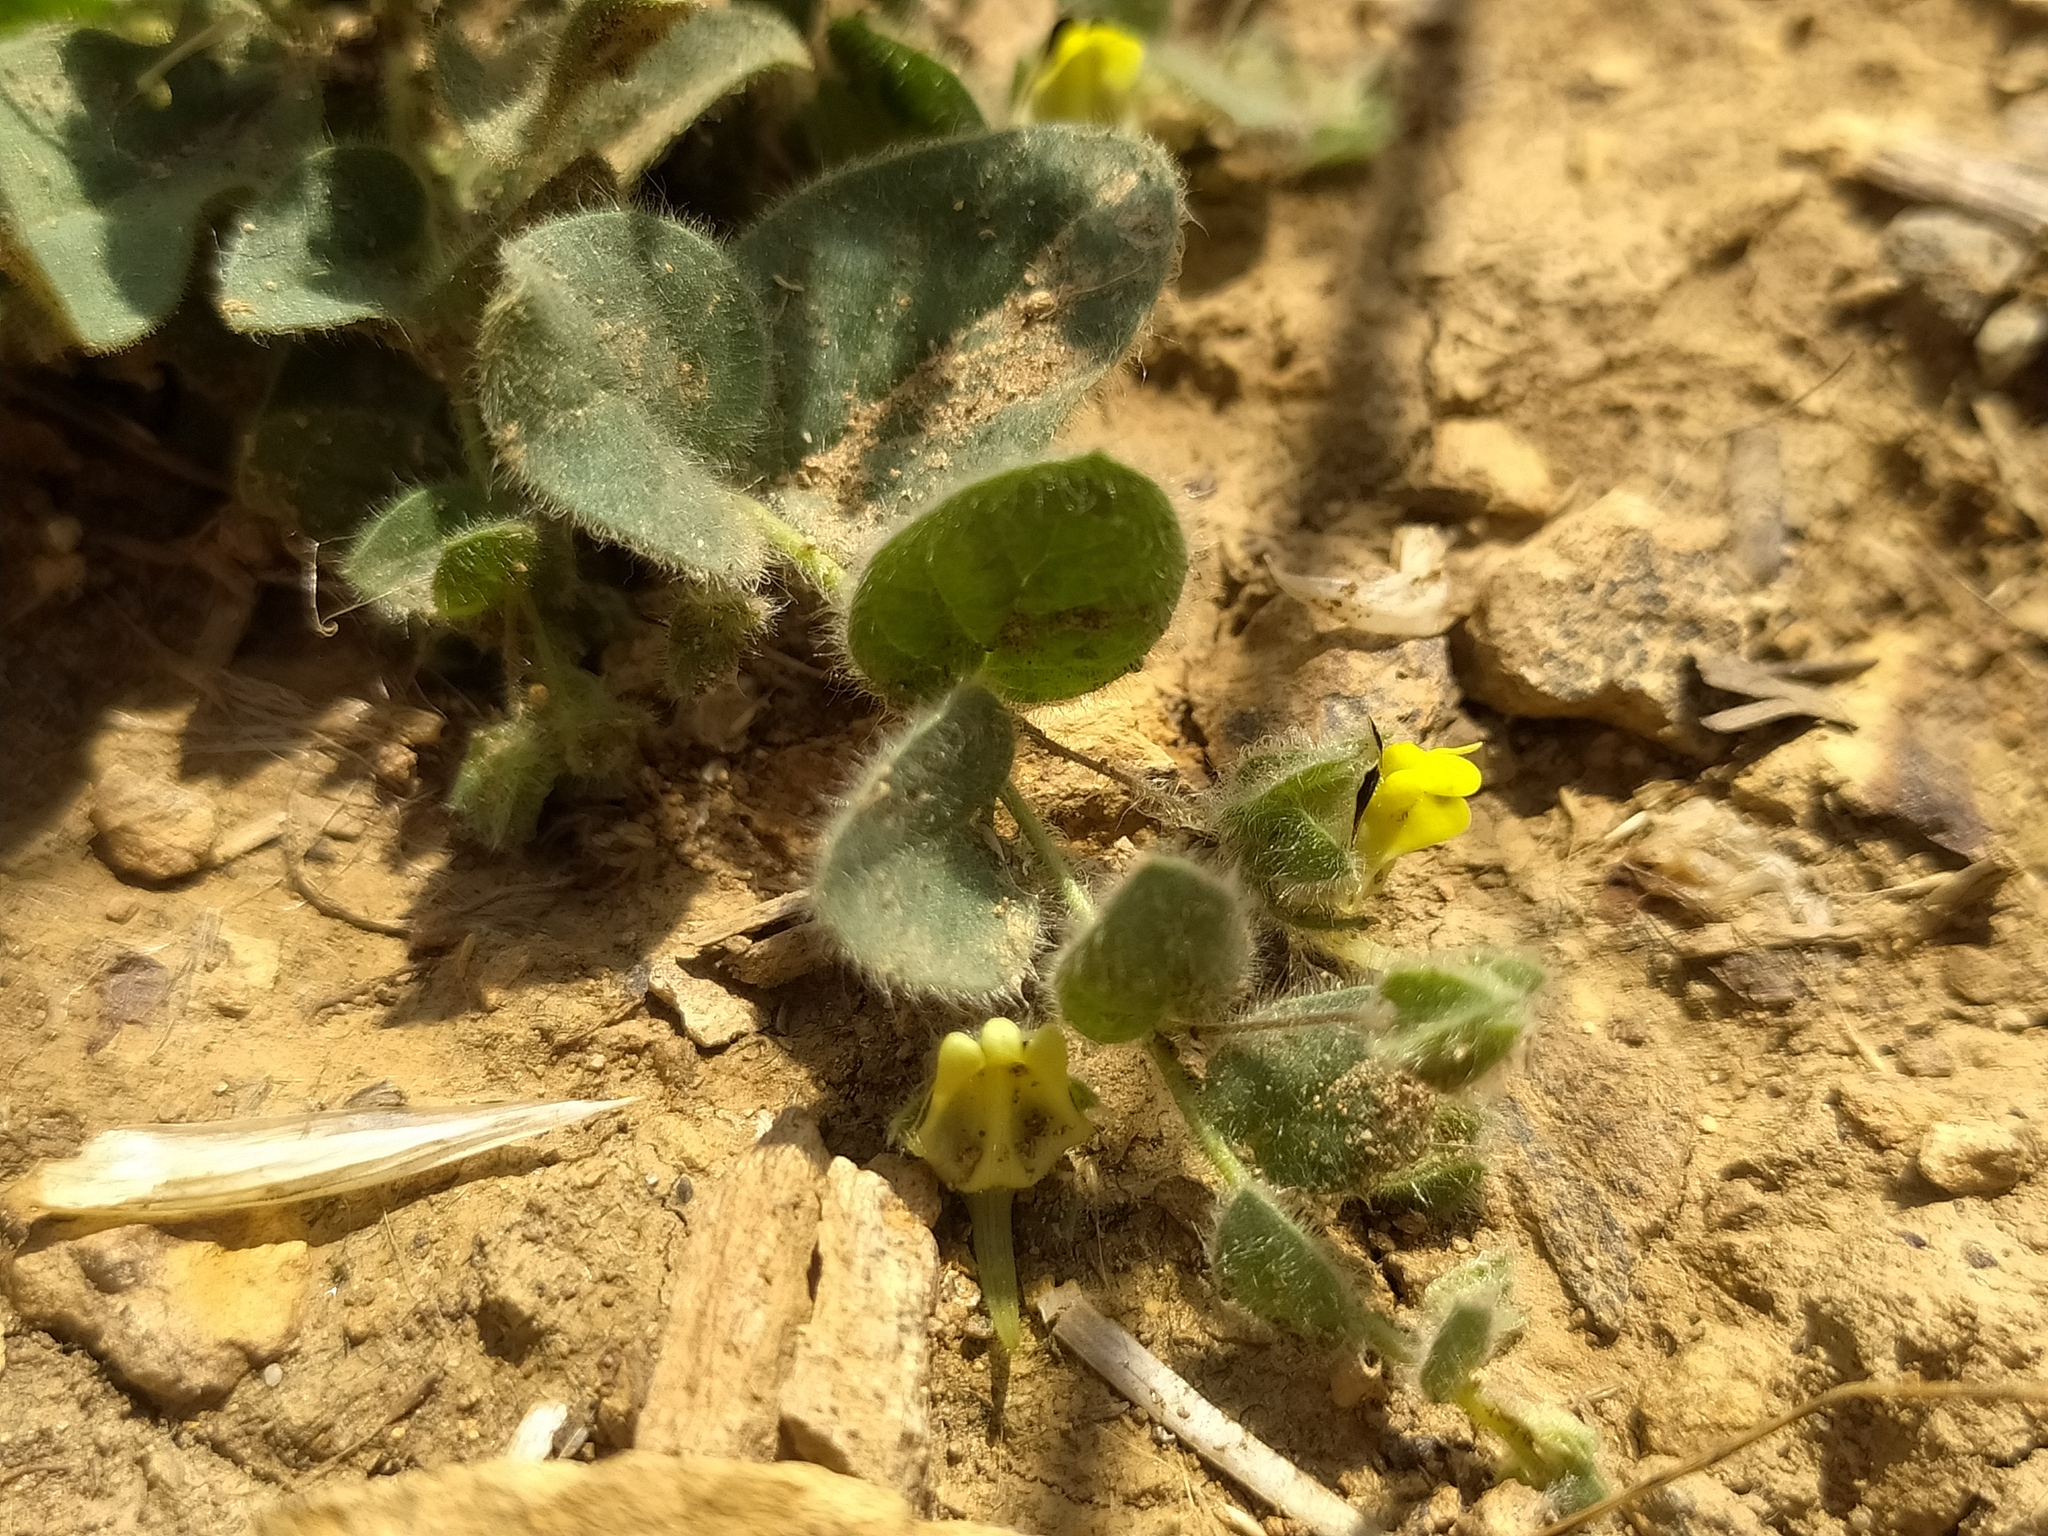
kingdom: Plantae
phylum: Tracheophyta
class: Magnoliopsida
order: Lamiales
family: Plantaginaceae
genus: Kickxia
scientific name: Kickxia spuria
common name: Round-leaved fluellen
